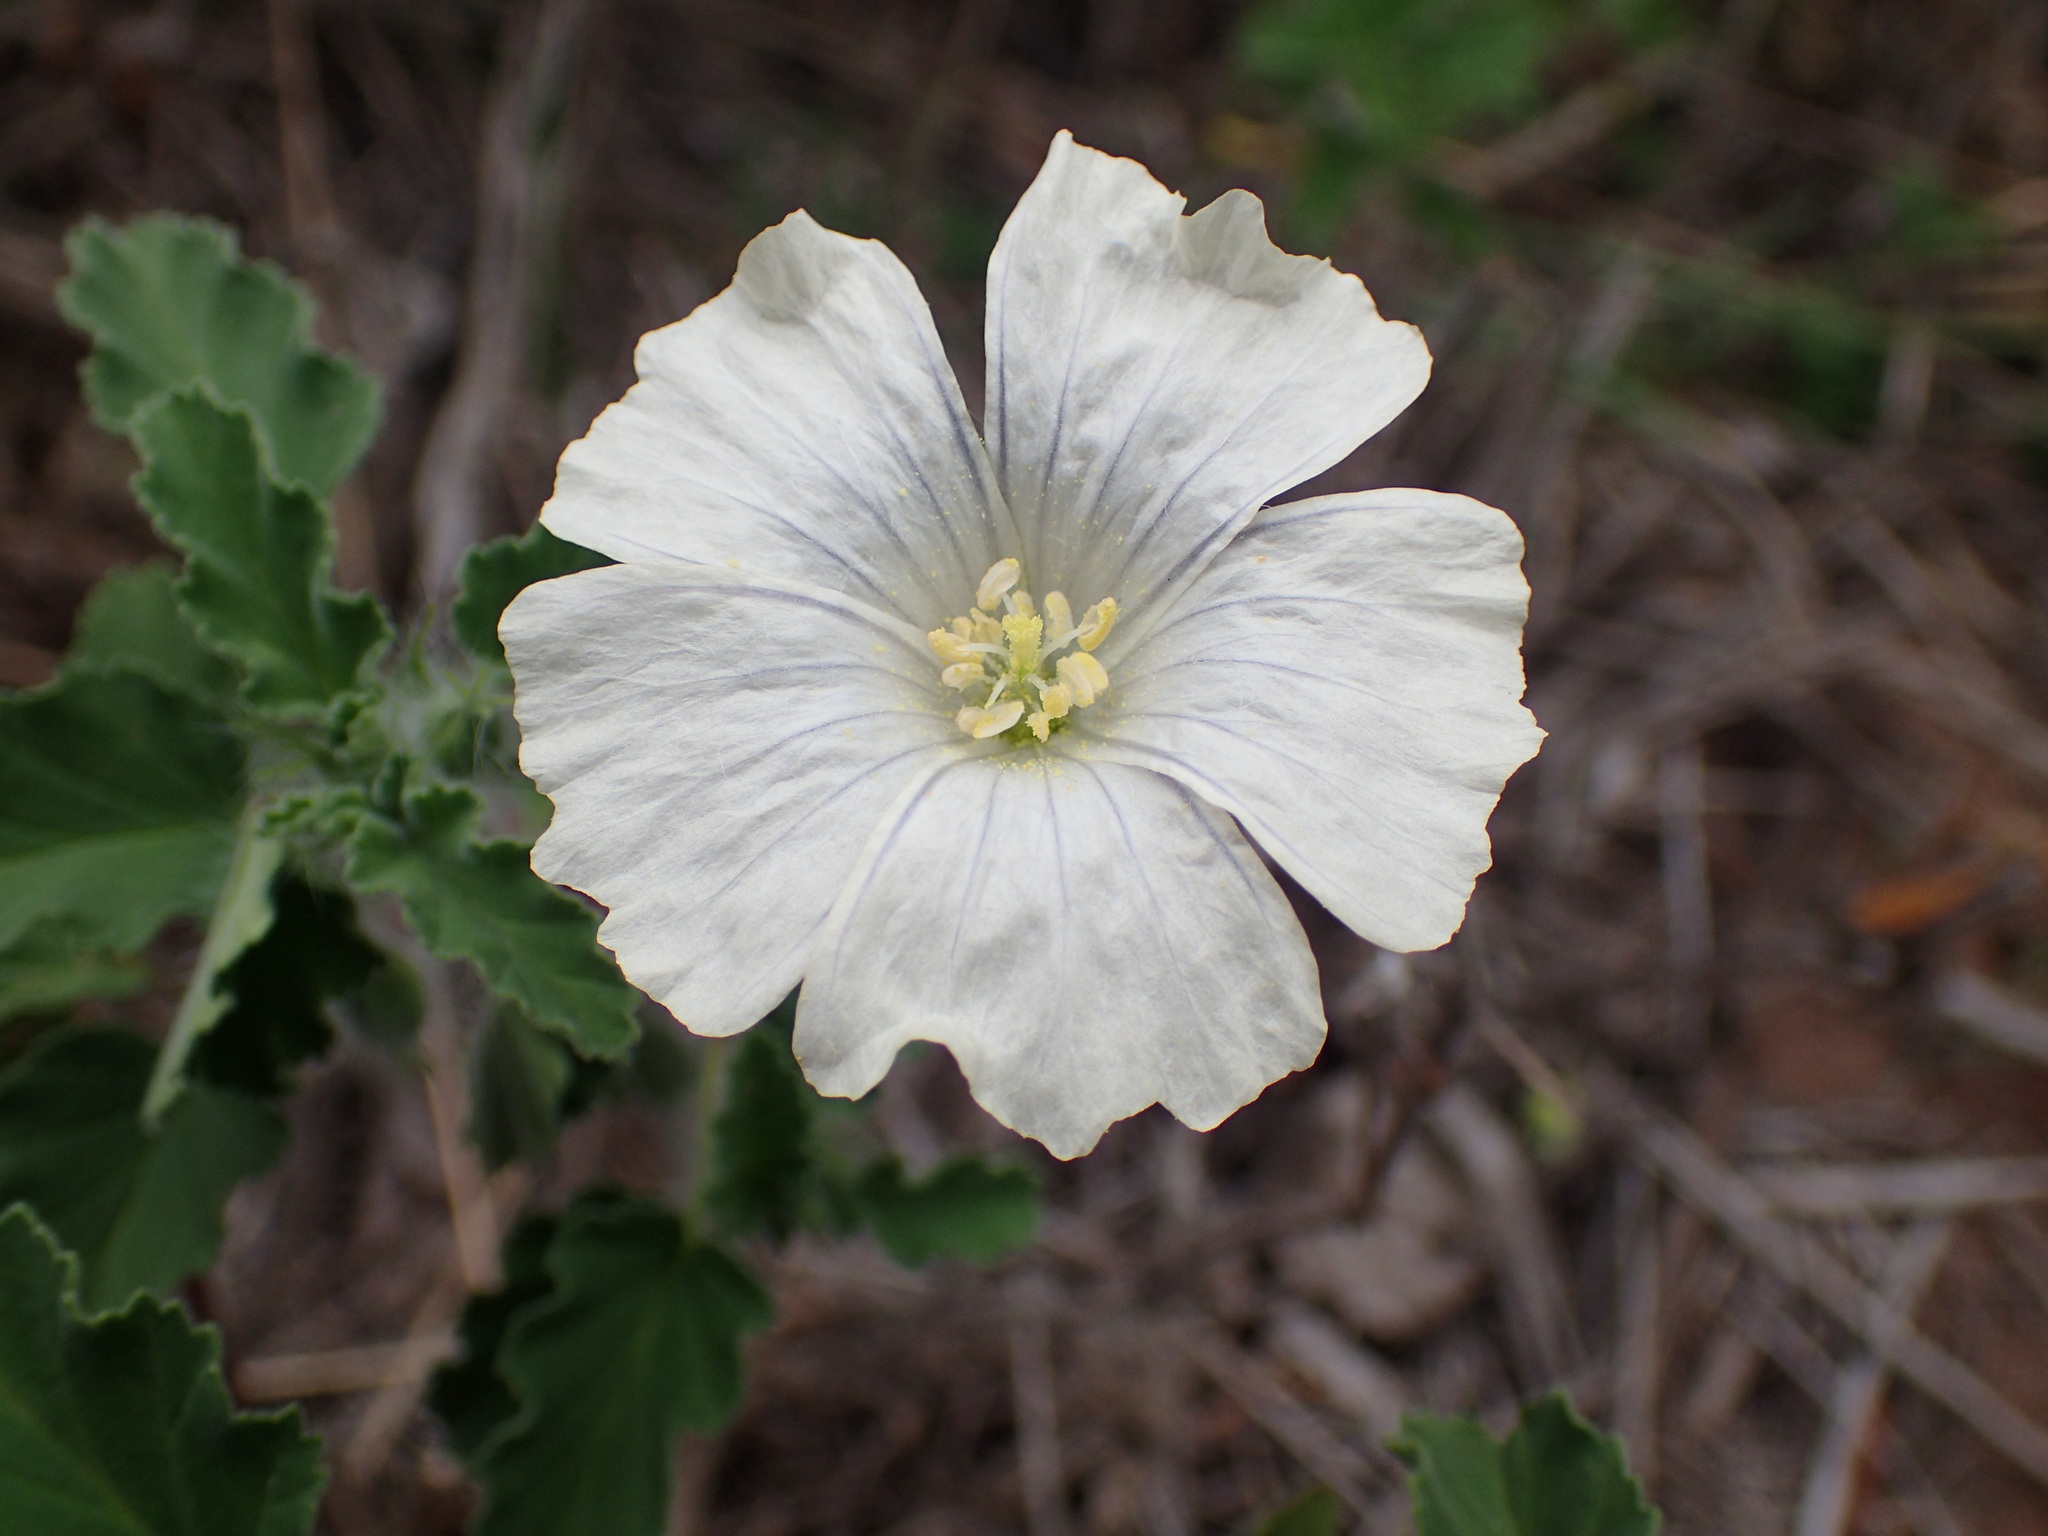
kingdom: Plantae
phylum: Tracheophyta
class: Magnoliopsida
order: Geraniales
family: Geraniaceae
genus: Monsonia
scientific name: Monsonia emarginata
